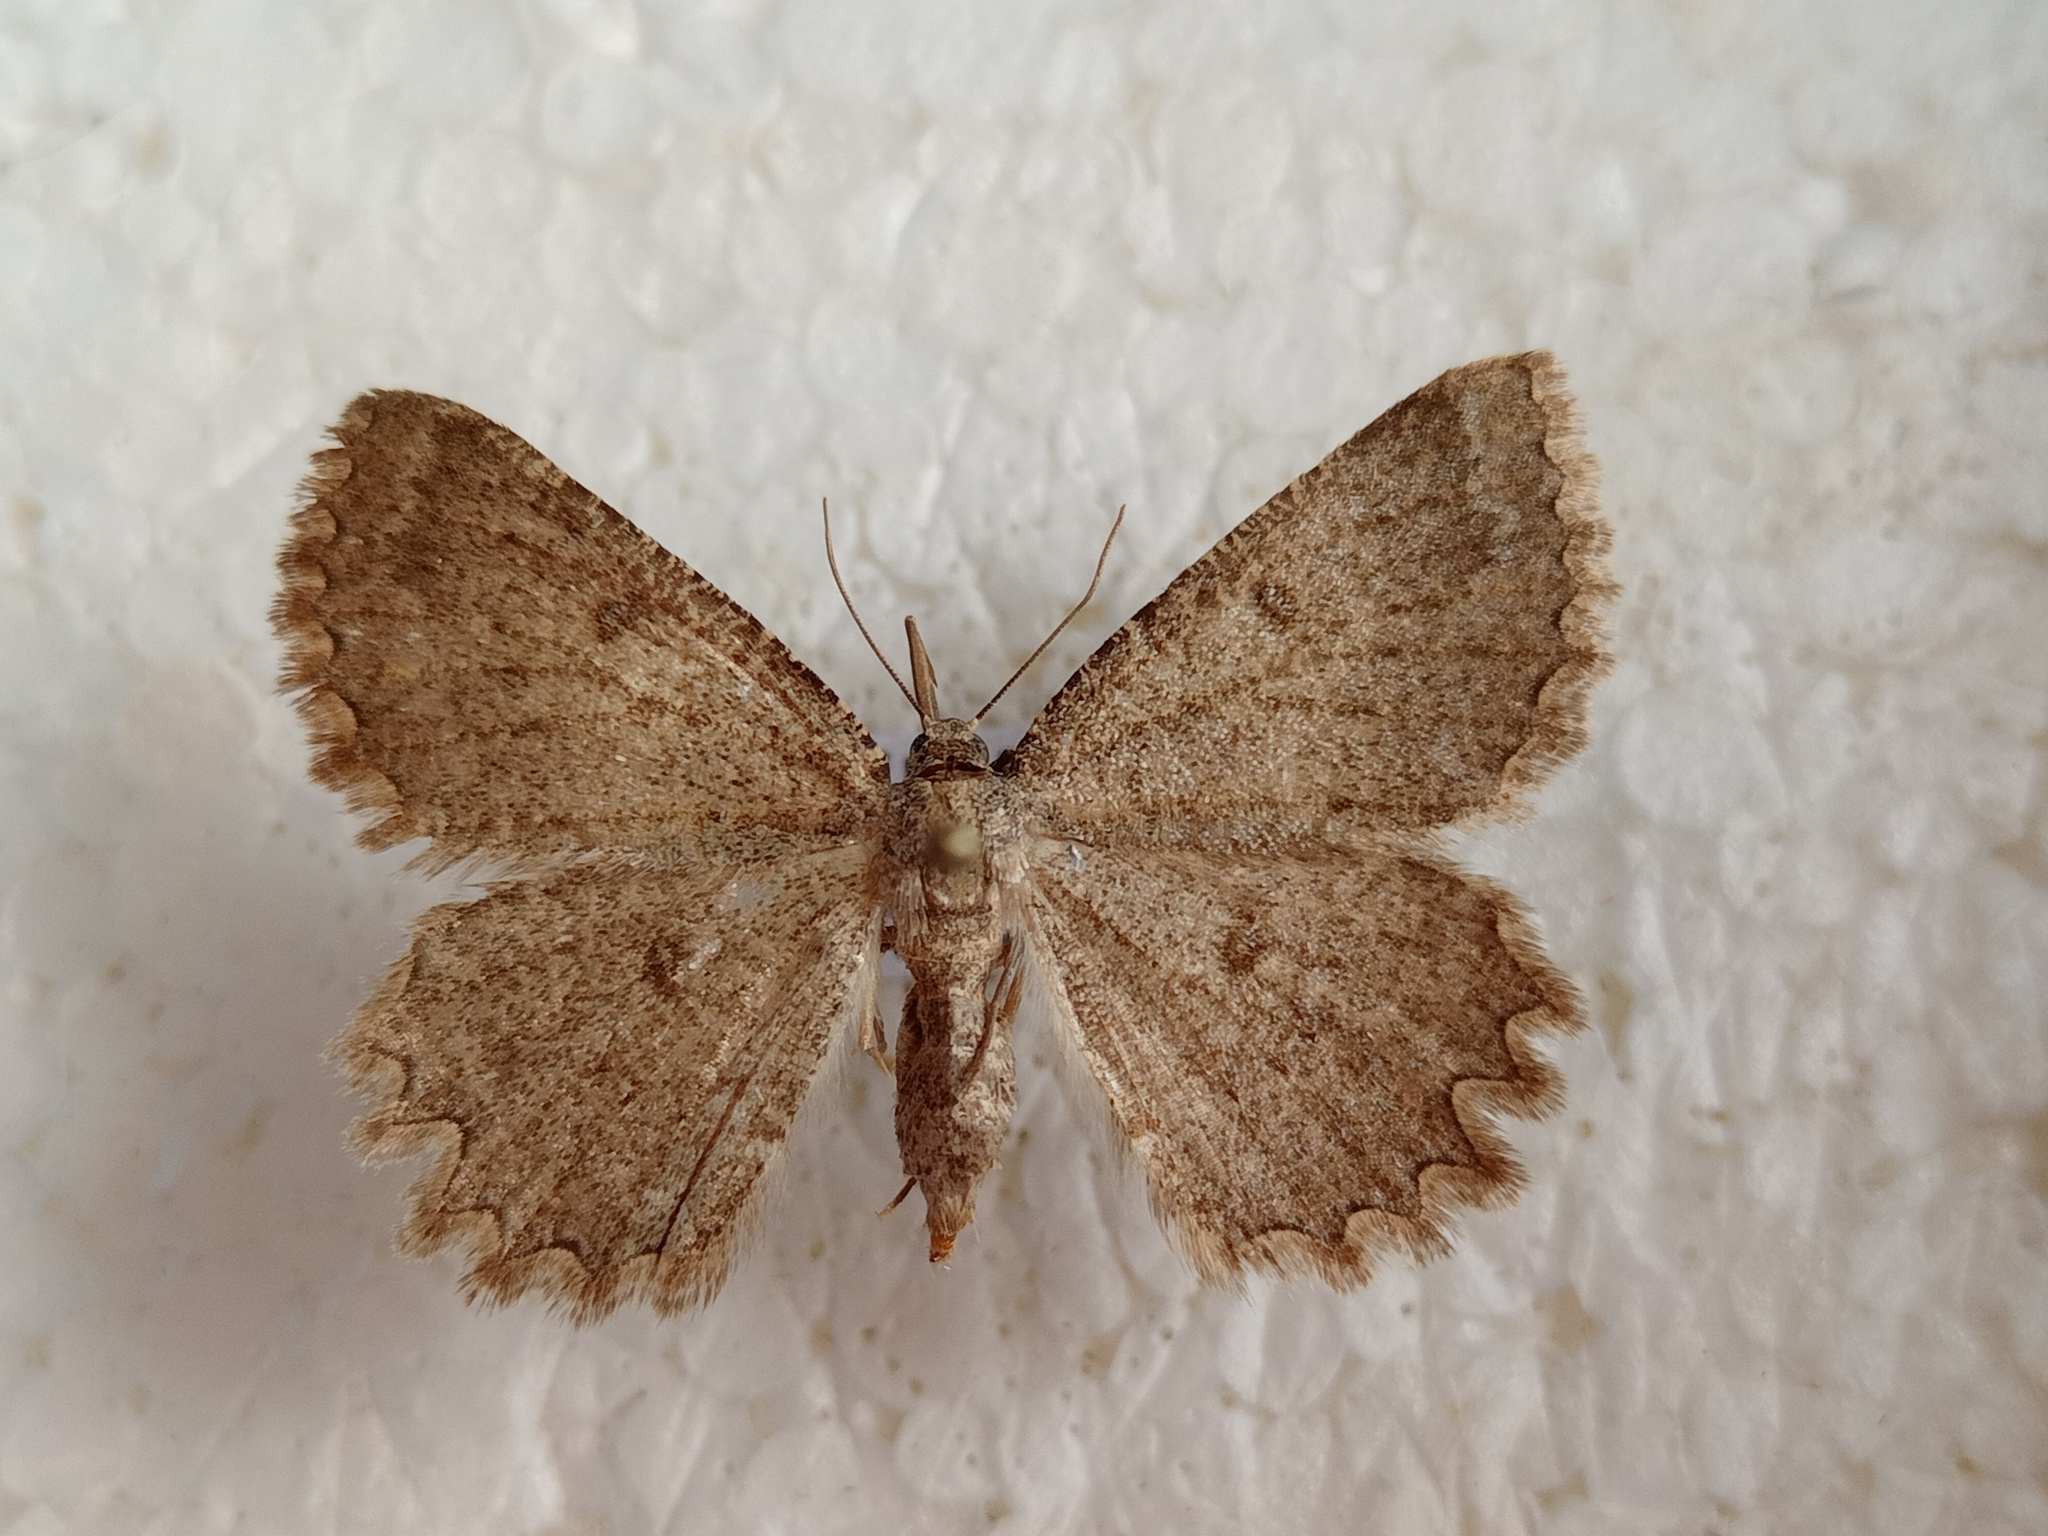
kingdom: Animalia
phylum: Arthropoda
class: Insecta
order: Lepidoptera
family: Geometridae
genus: Charissa
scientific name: Charissa obscurata
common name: Annulet
